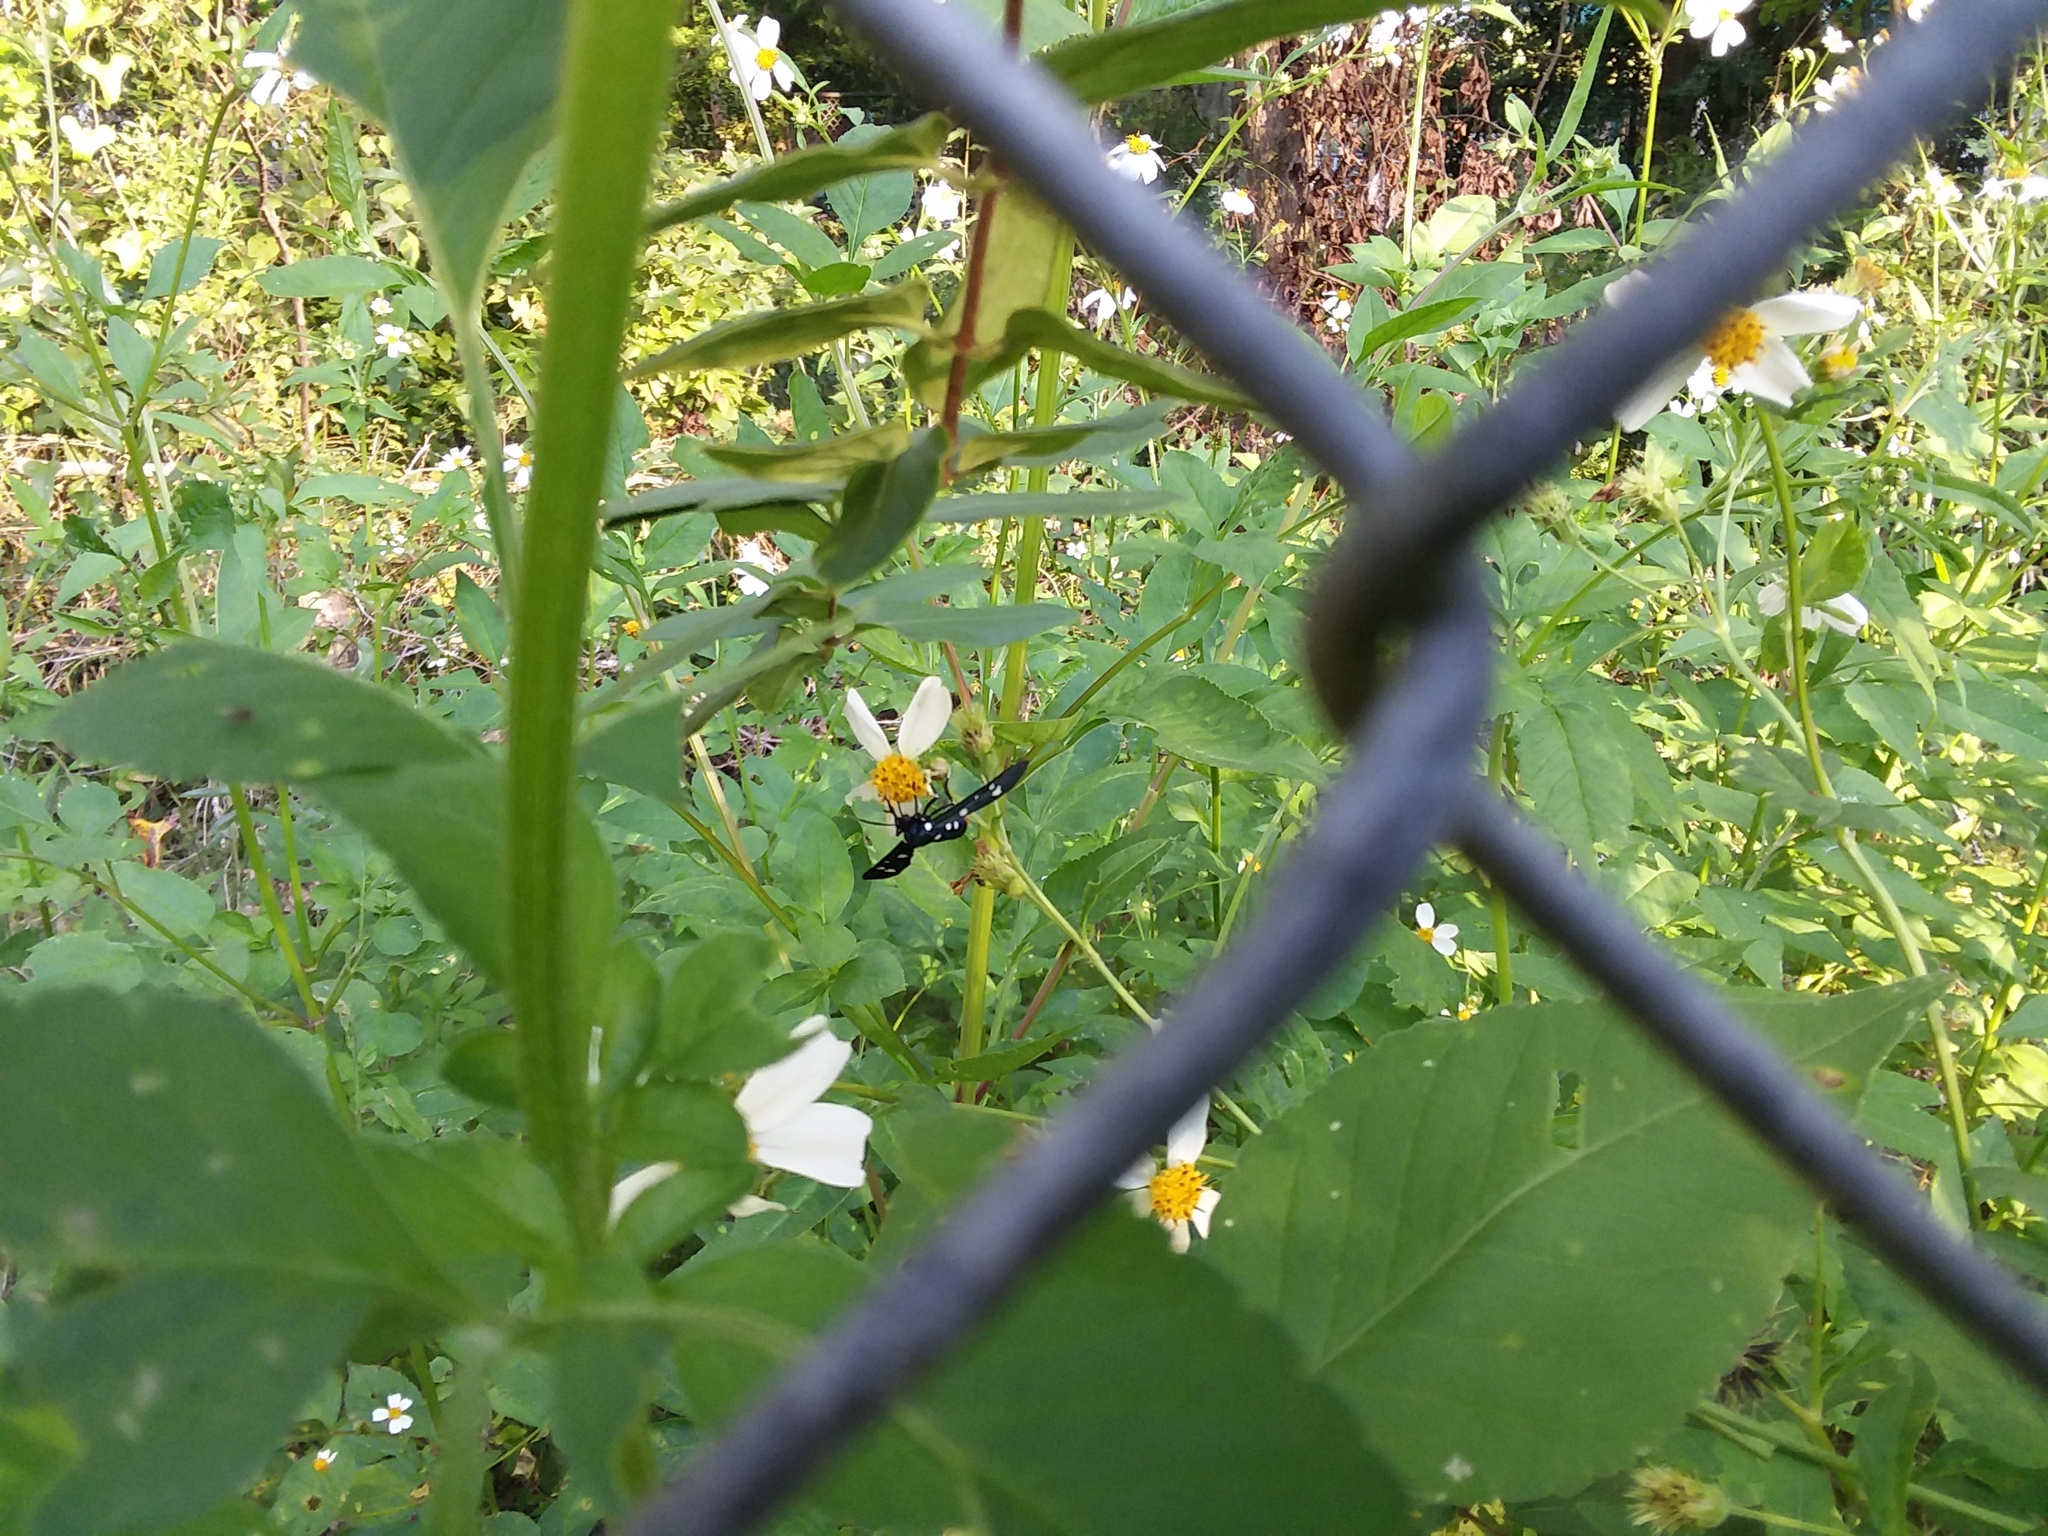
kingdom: Animalia
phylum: Arthropoda
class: Insecta
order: Lepidoptera
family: Erebidae
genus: Syntomeida
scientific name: Syntomeida epilais
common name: Polka-dot wasp moth
